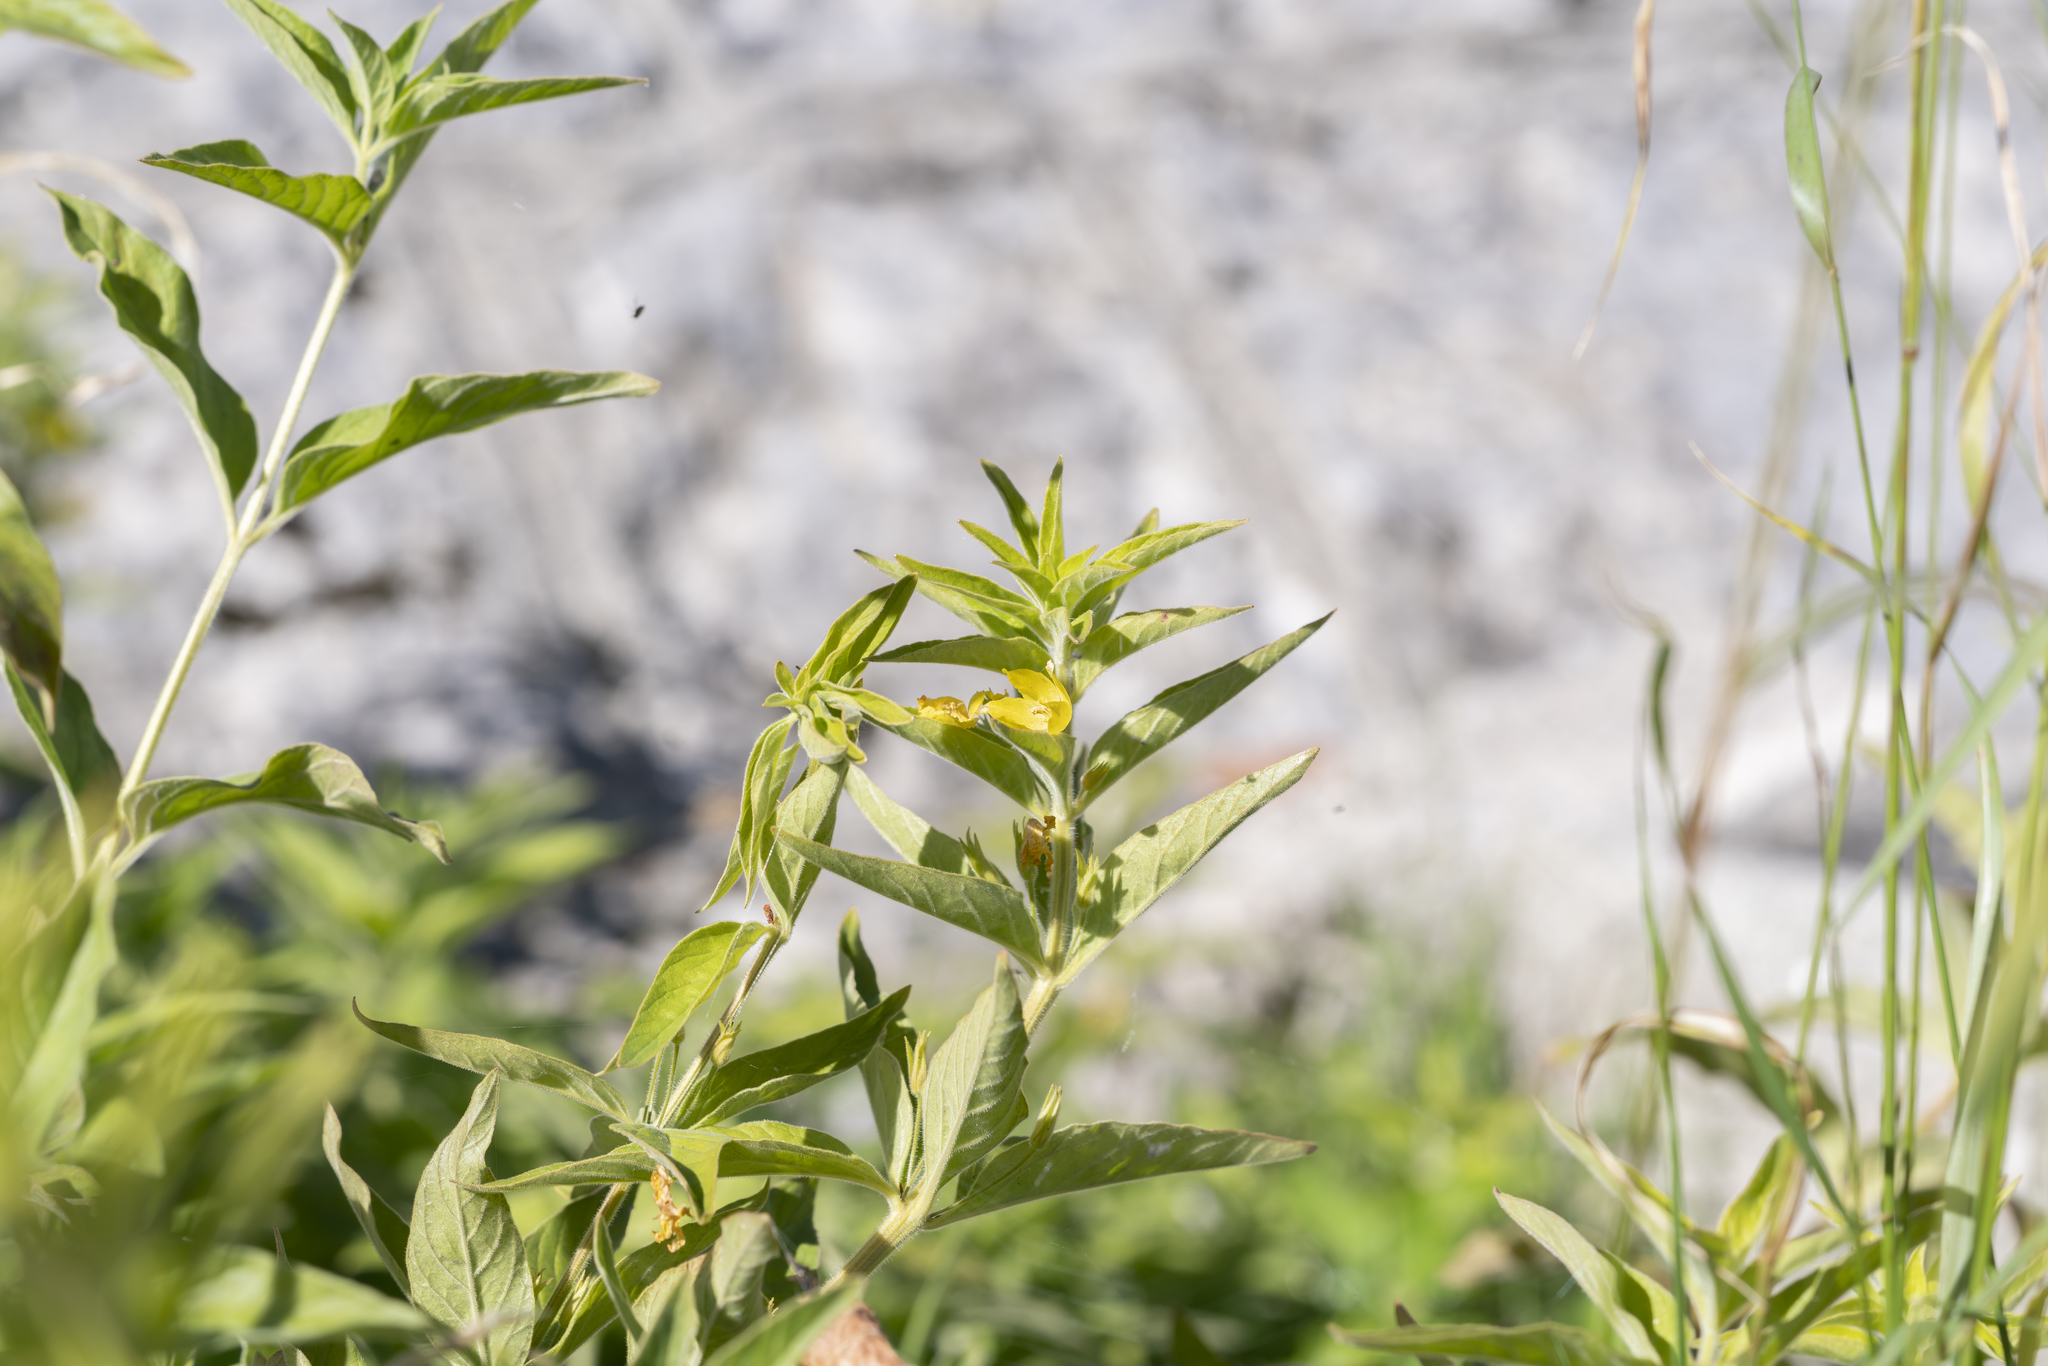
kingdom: Plantae
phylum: Tracheophyta
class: Magnoliopsida
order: Ericales
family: Primulaceae
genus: Lysimachia
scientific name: Lysimachia punctata
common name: Dotted loosestrife
